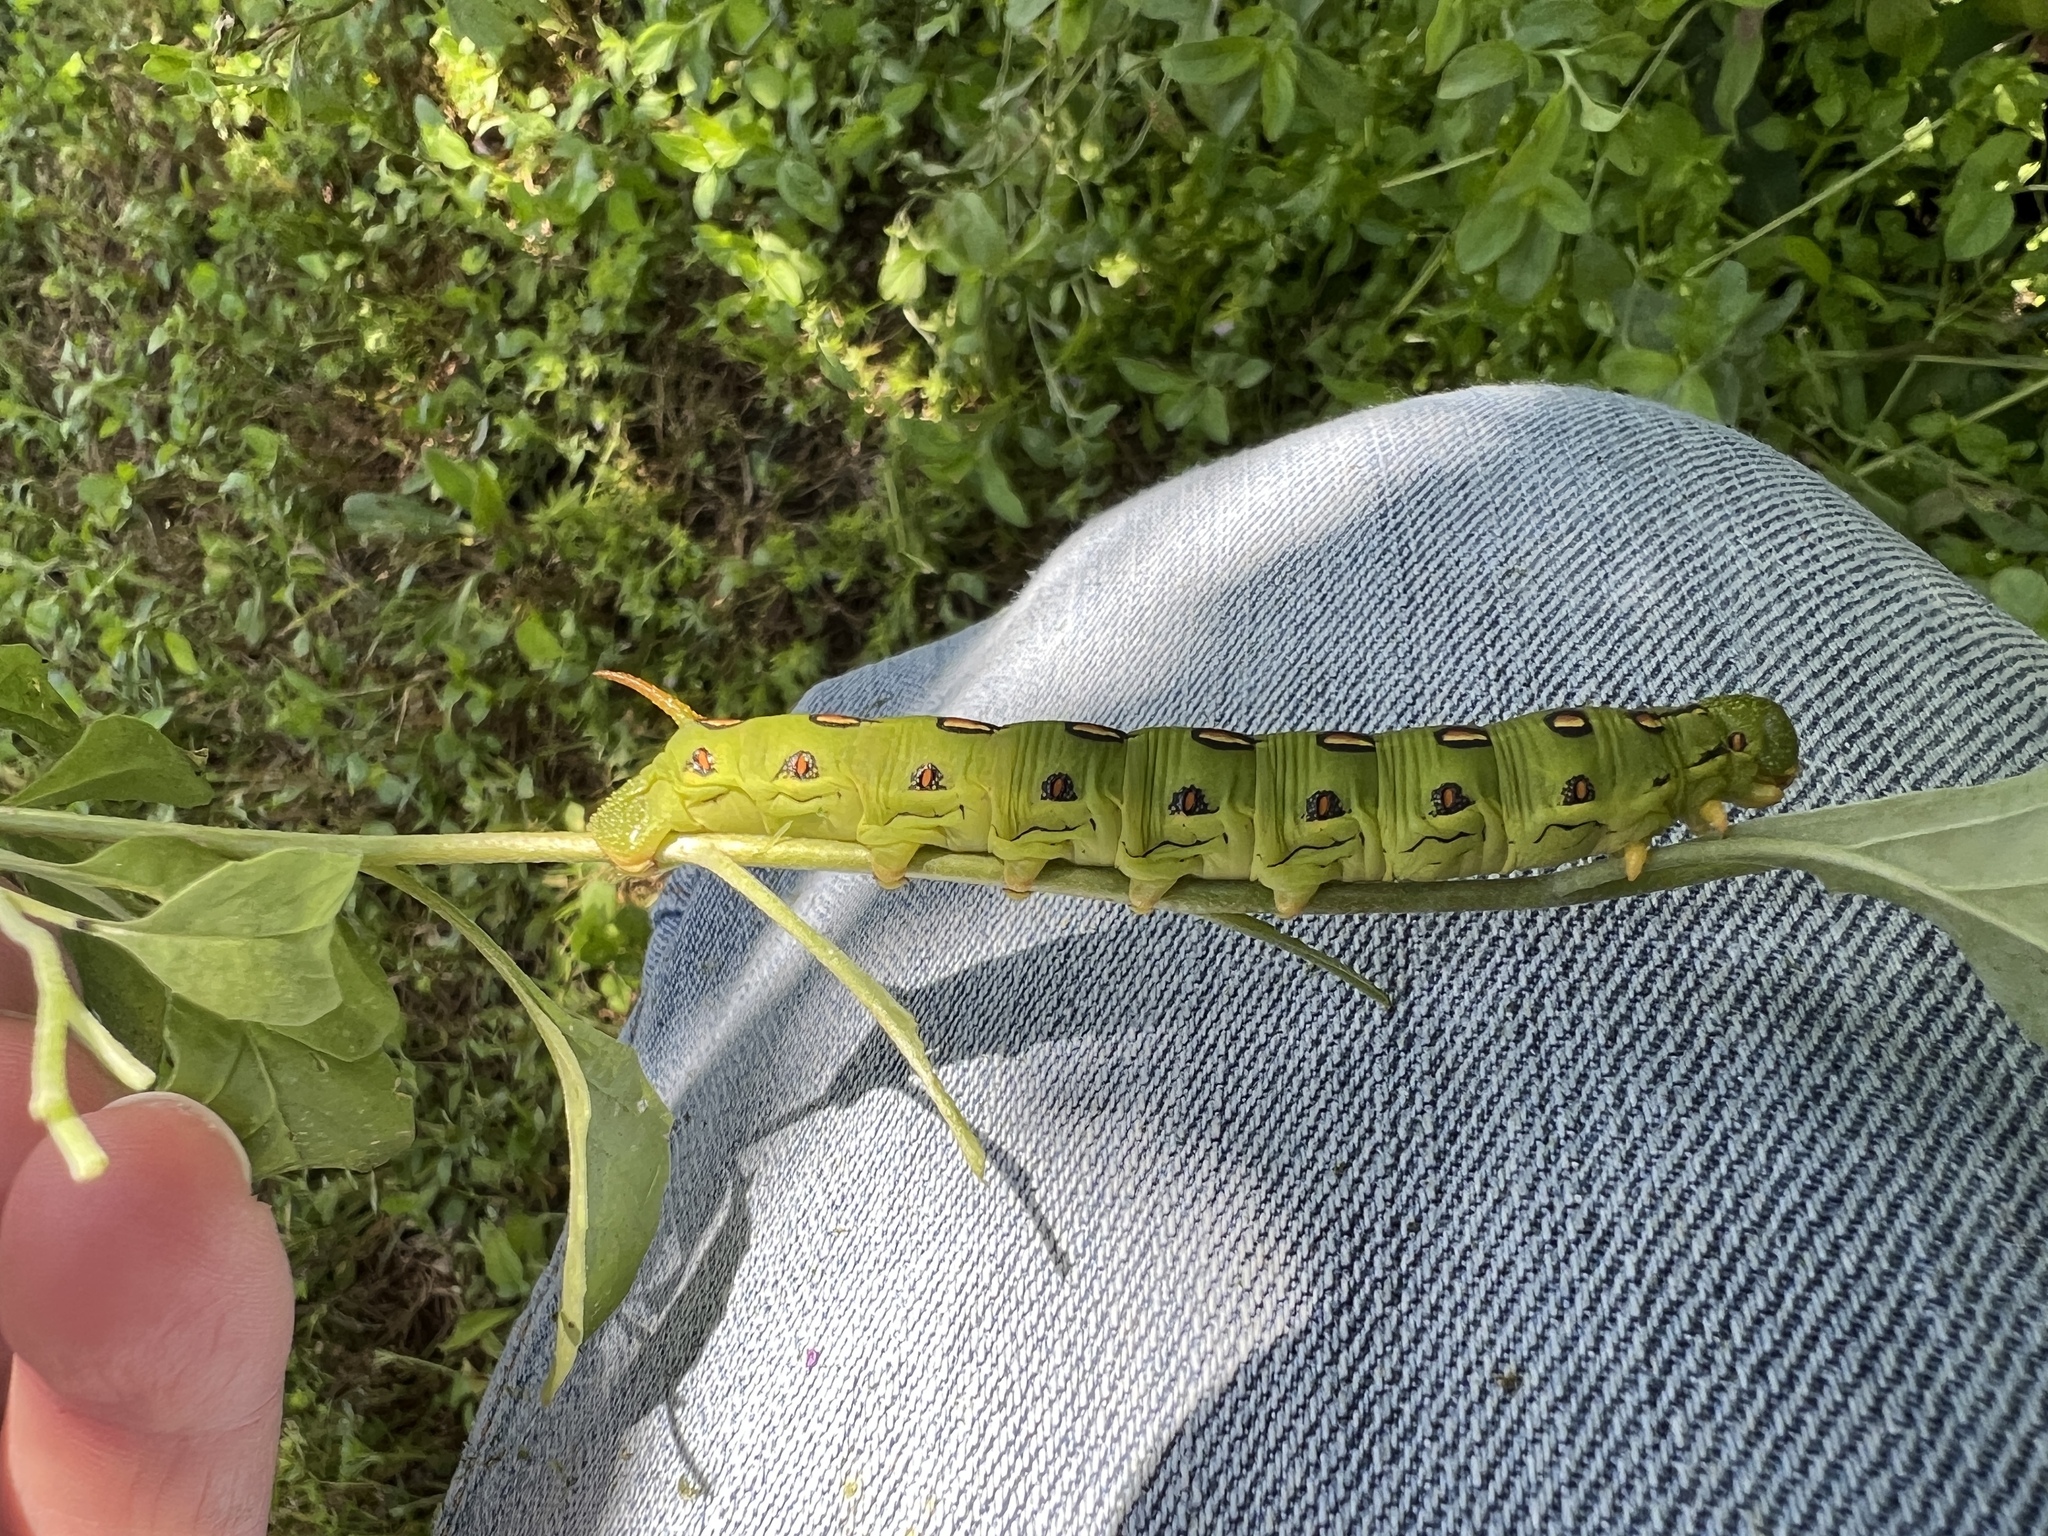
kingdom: Animalia
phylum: Arthropoda
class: Insecta
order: Lepidoptera
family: Sphingidae
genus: Hyles
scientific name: Hyles lineata
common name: White-lined sphinx
